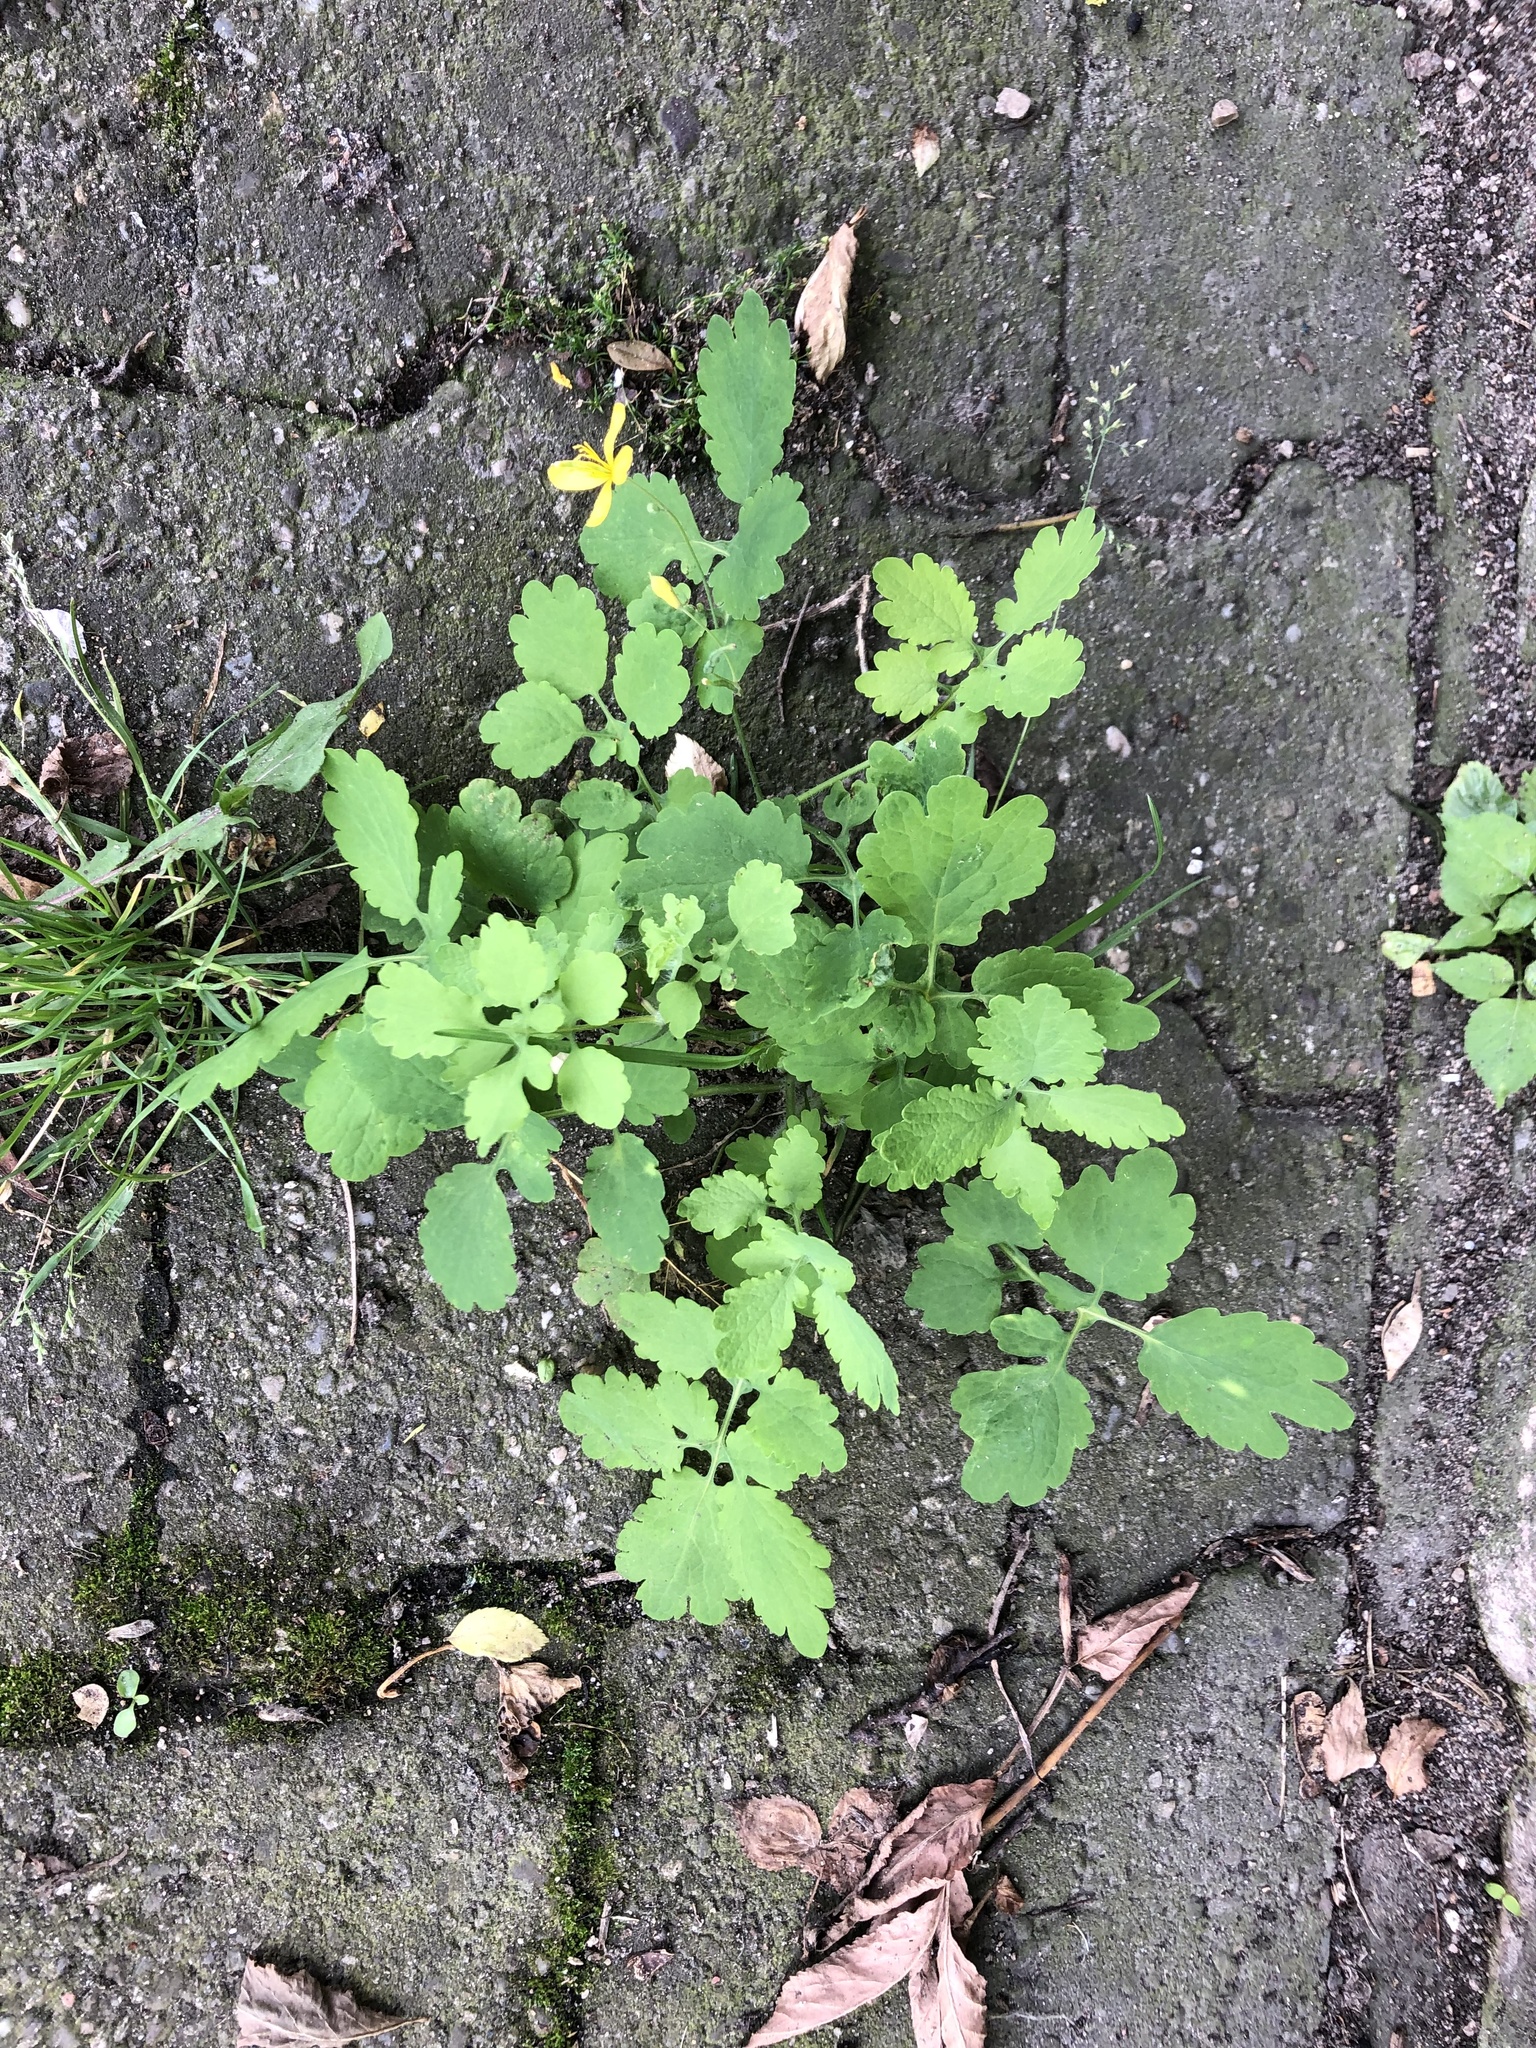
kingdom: Plantae
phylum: Tracheophyta
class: Magnoliopsida
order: Ranunculales
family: Papaveraceae
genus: Chelidonium
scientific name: Chelidonium majus
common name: Greater celandine
